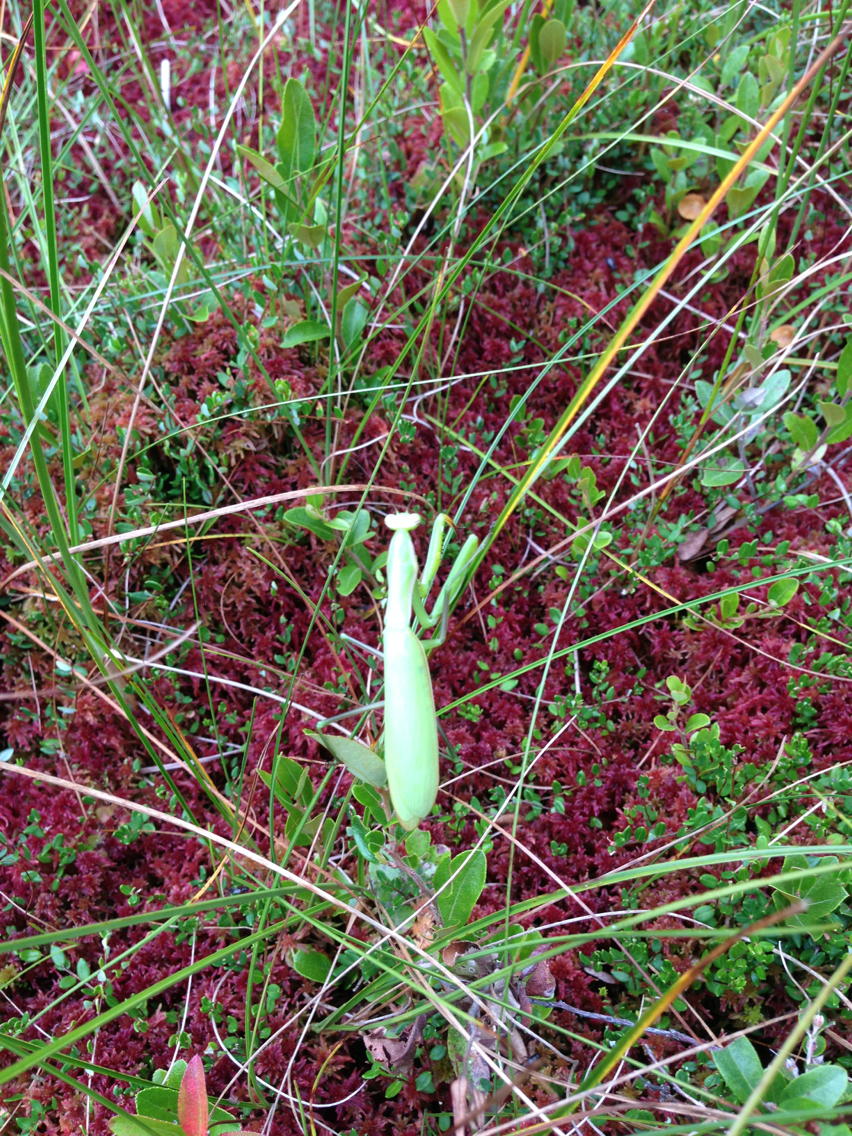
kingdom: Animalia
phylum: Arthropoda
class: Insecta
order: Mantodea
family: Mantidae
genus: Mantis
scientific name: Mantis religiosa
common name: Praying mantis
